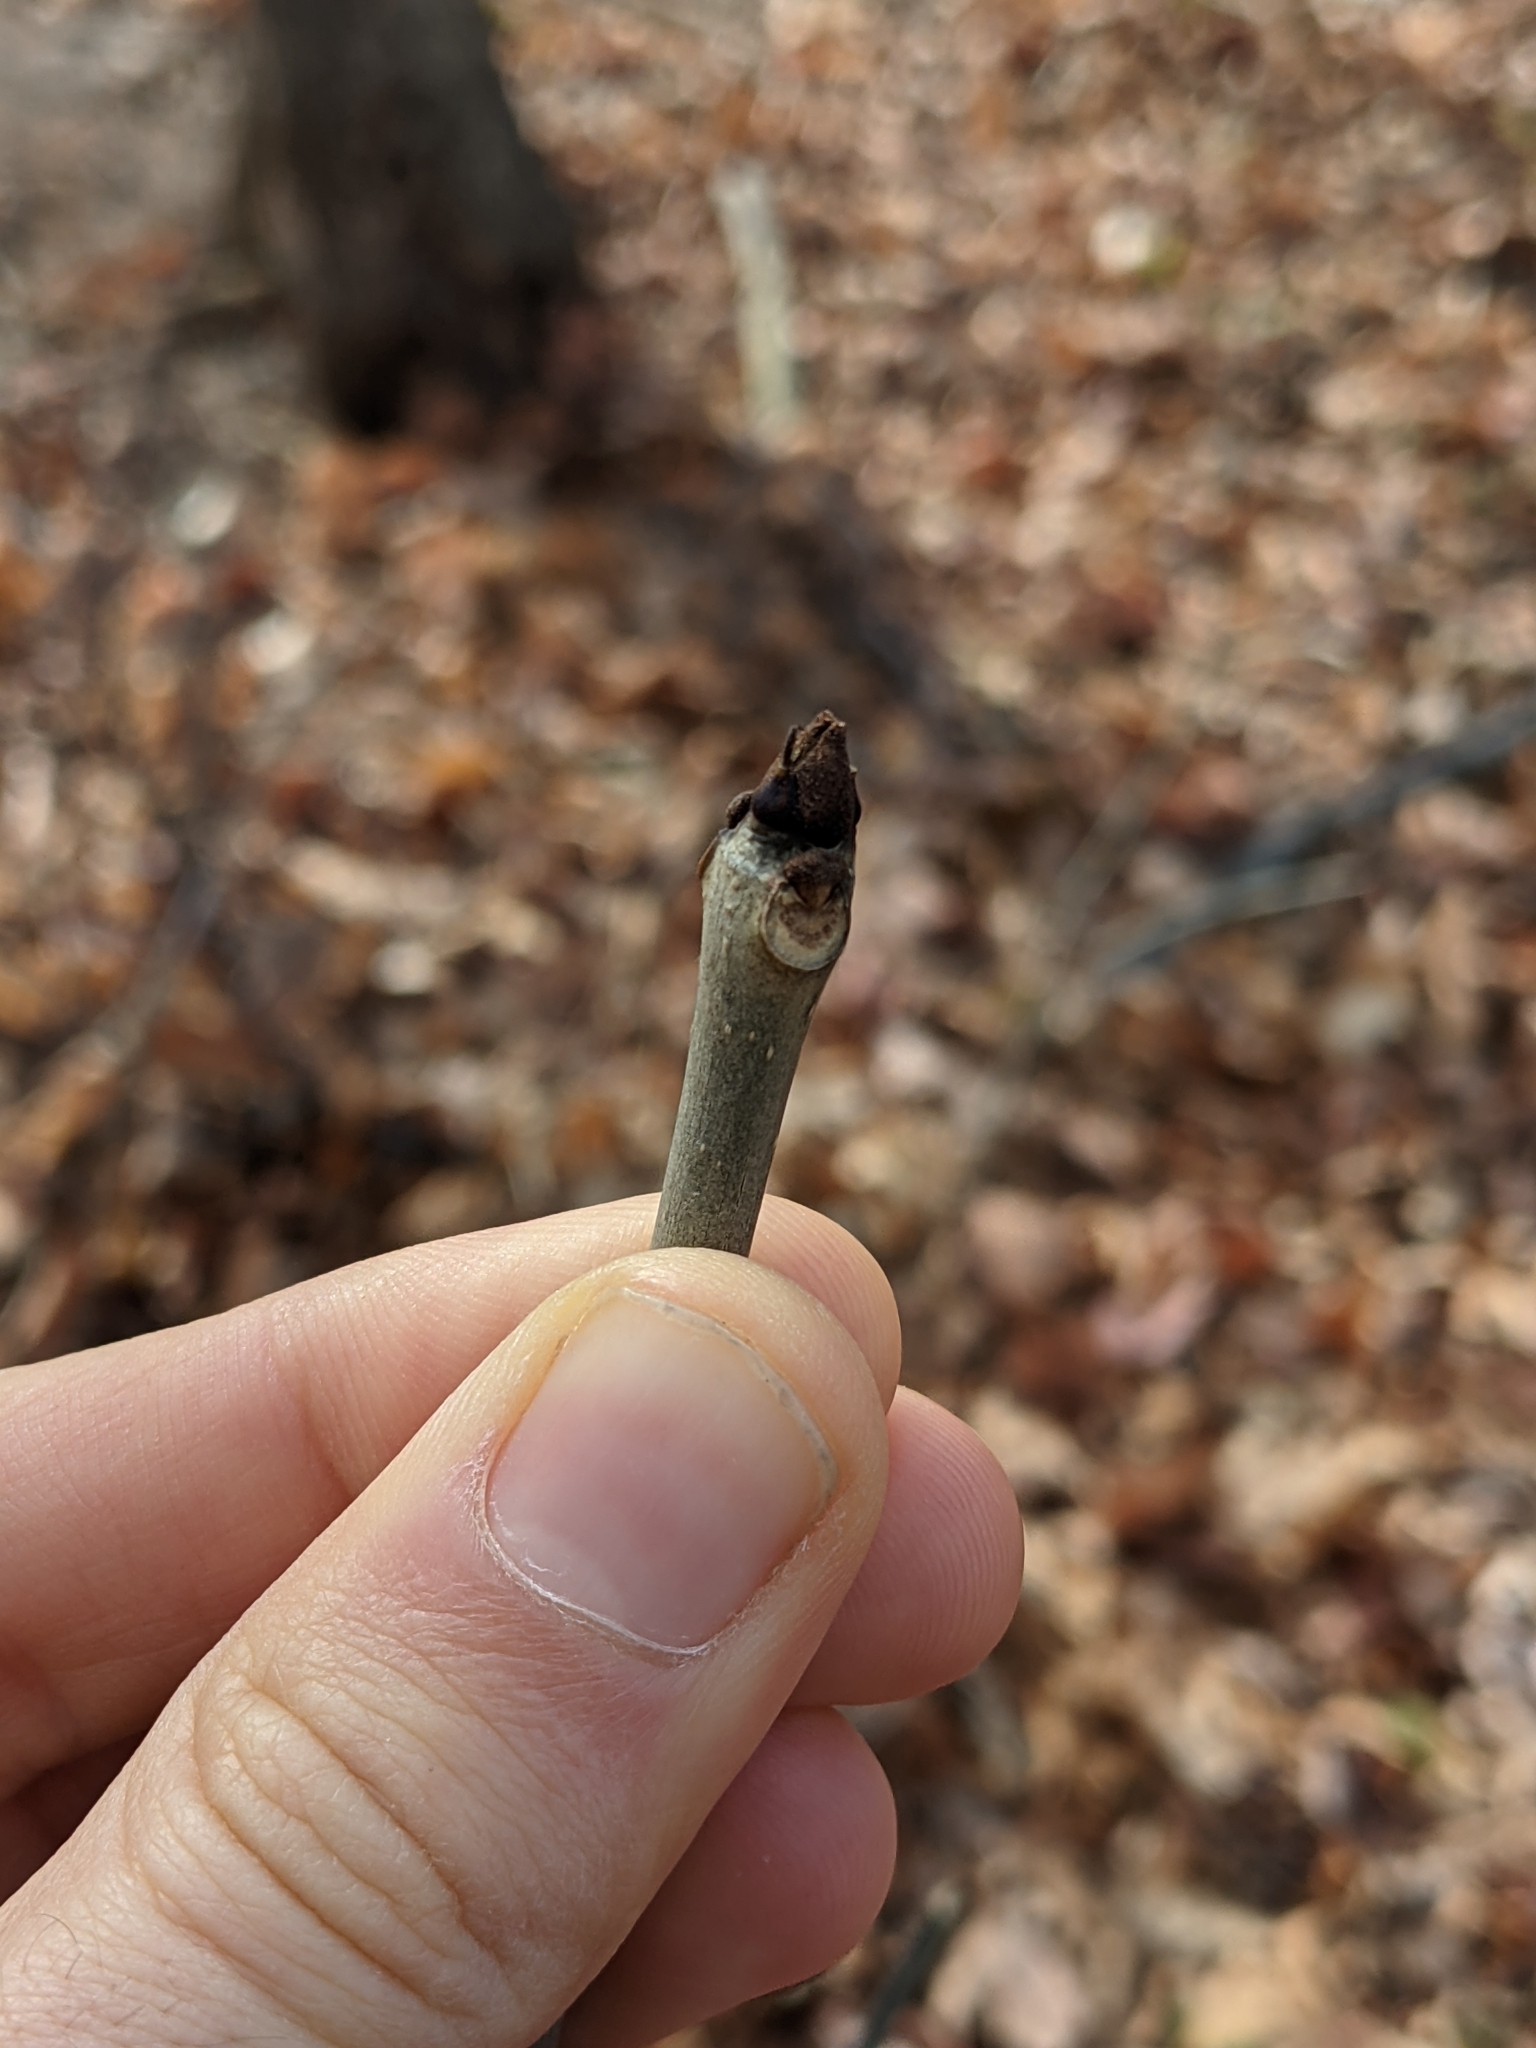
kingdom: Plantae
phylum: Tracheophyta
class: Magnoliopsida
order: Lamiales
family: Oleaceae
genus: Fraxinus
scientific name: Fraxinus americana
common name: White ash
